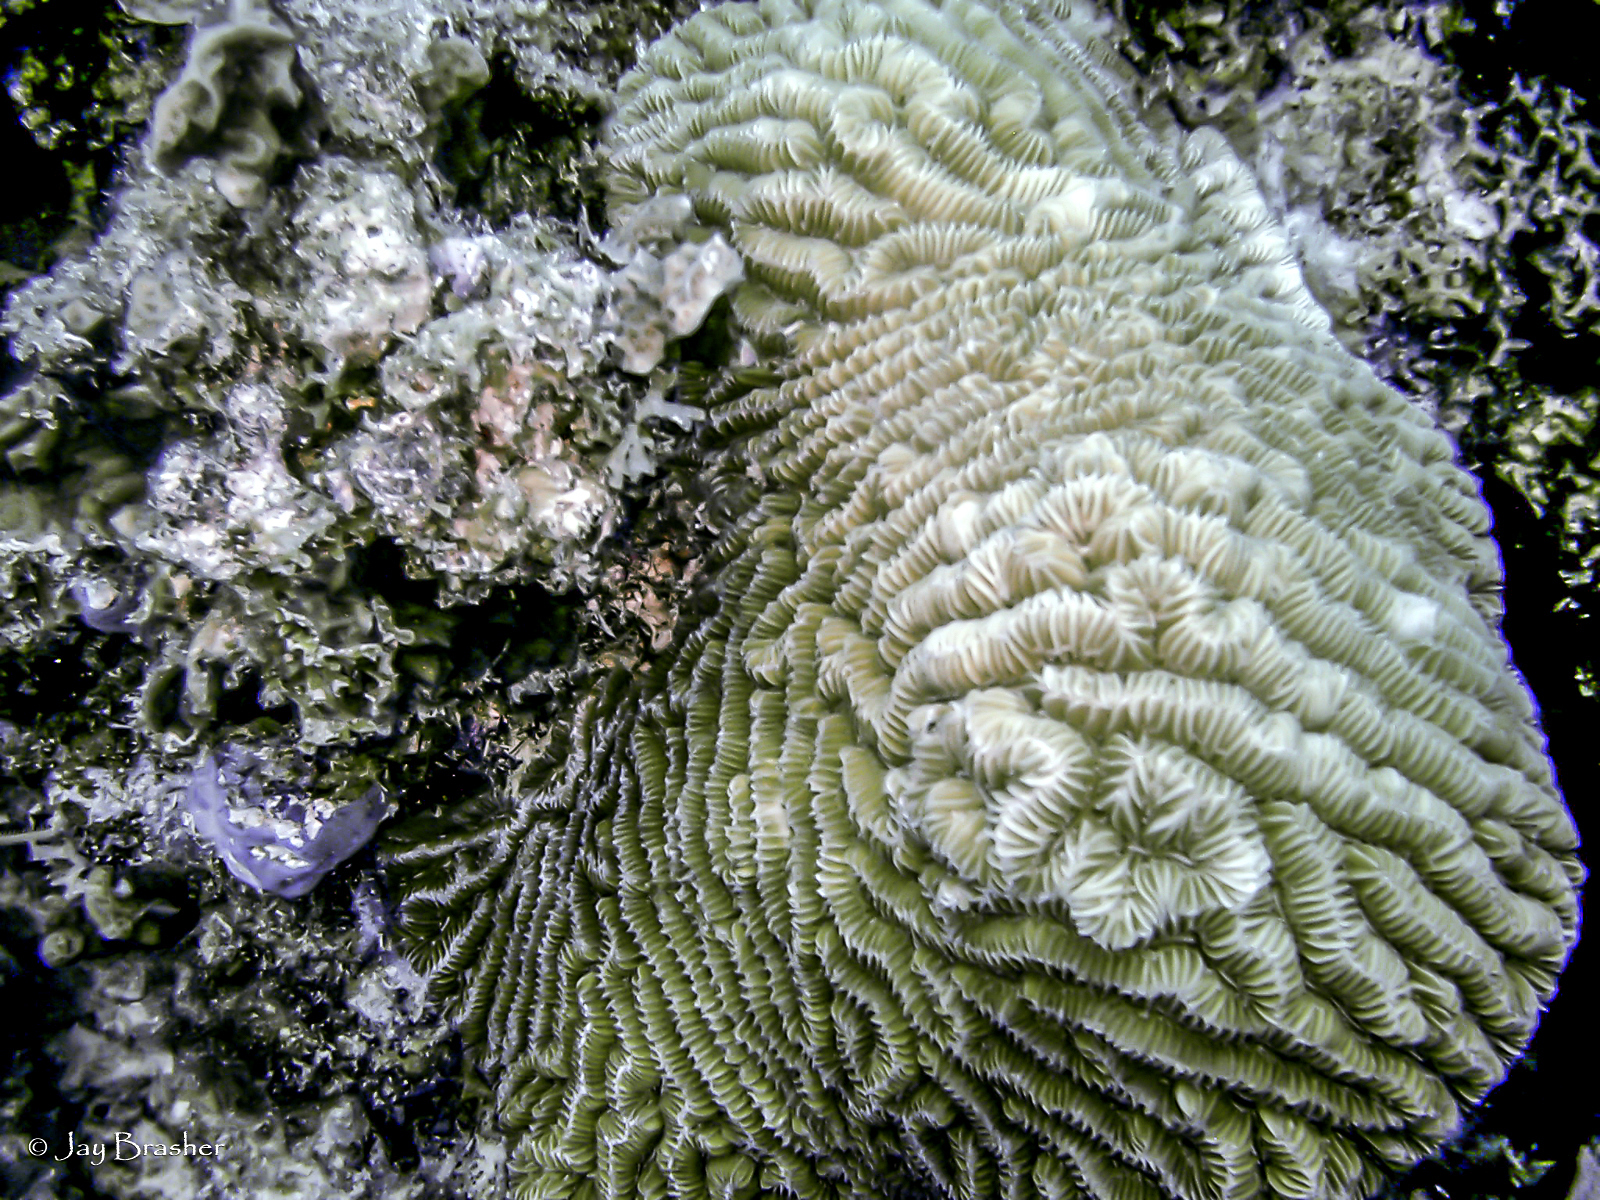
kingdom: Animalia
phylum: Cnidaria
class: Anthozoa
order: Scleractinia
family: Meandrinidae
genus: Meandrina
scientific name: Meandrina meandrites
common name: Maze coral
